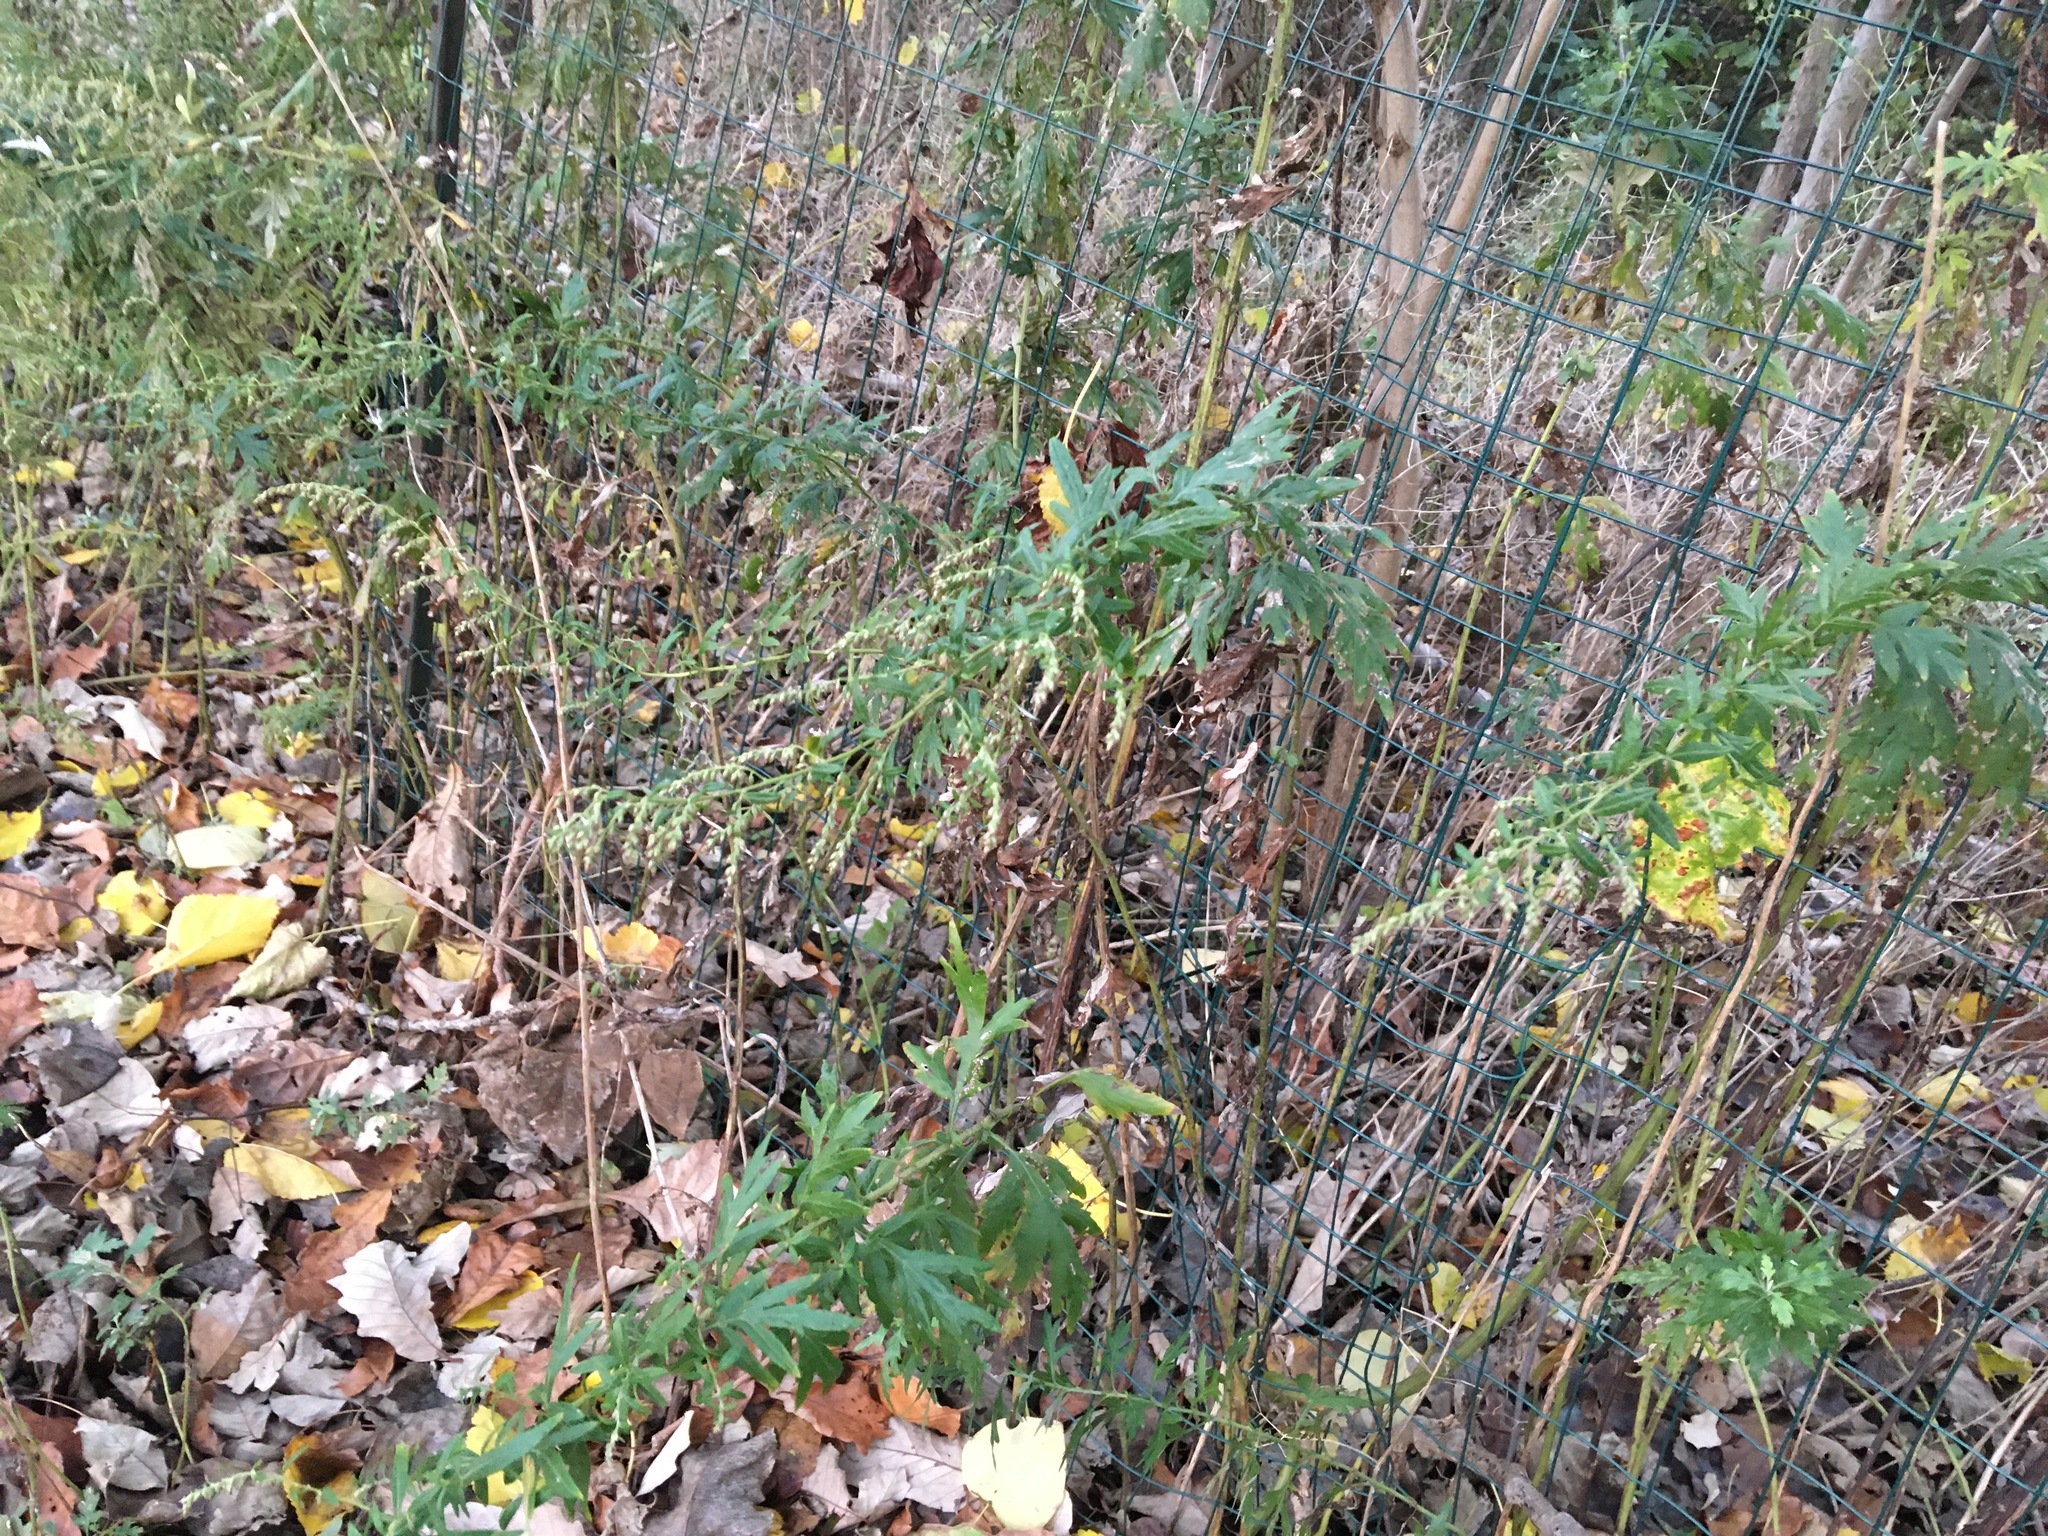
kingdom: Plantae
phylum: Tracheophyta
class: Magnoliopsida
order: Asterales
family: Asteraceae
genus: Artemisia
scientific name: Artemisia vulgaris
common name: Mugwort
